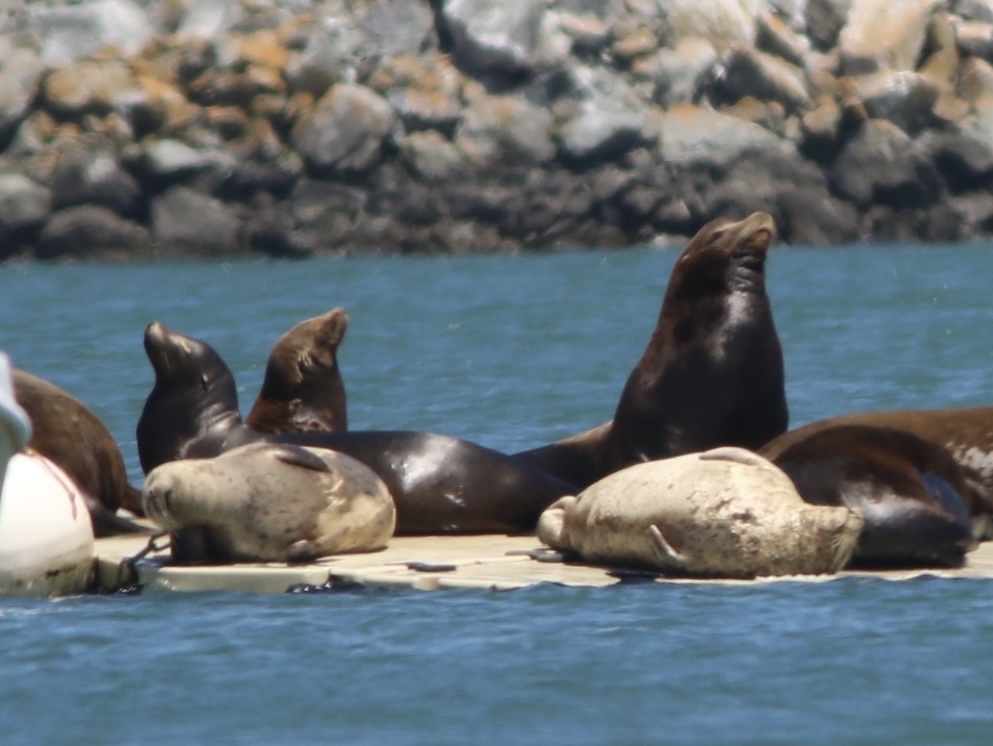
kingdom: Animalia
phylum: Chordata
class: Mammalia
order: Carnivora
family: Otariidae
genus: Zalophus
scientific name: Zalophus californianus
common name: California sea lion
